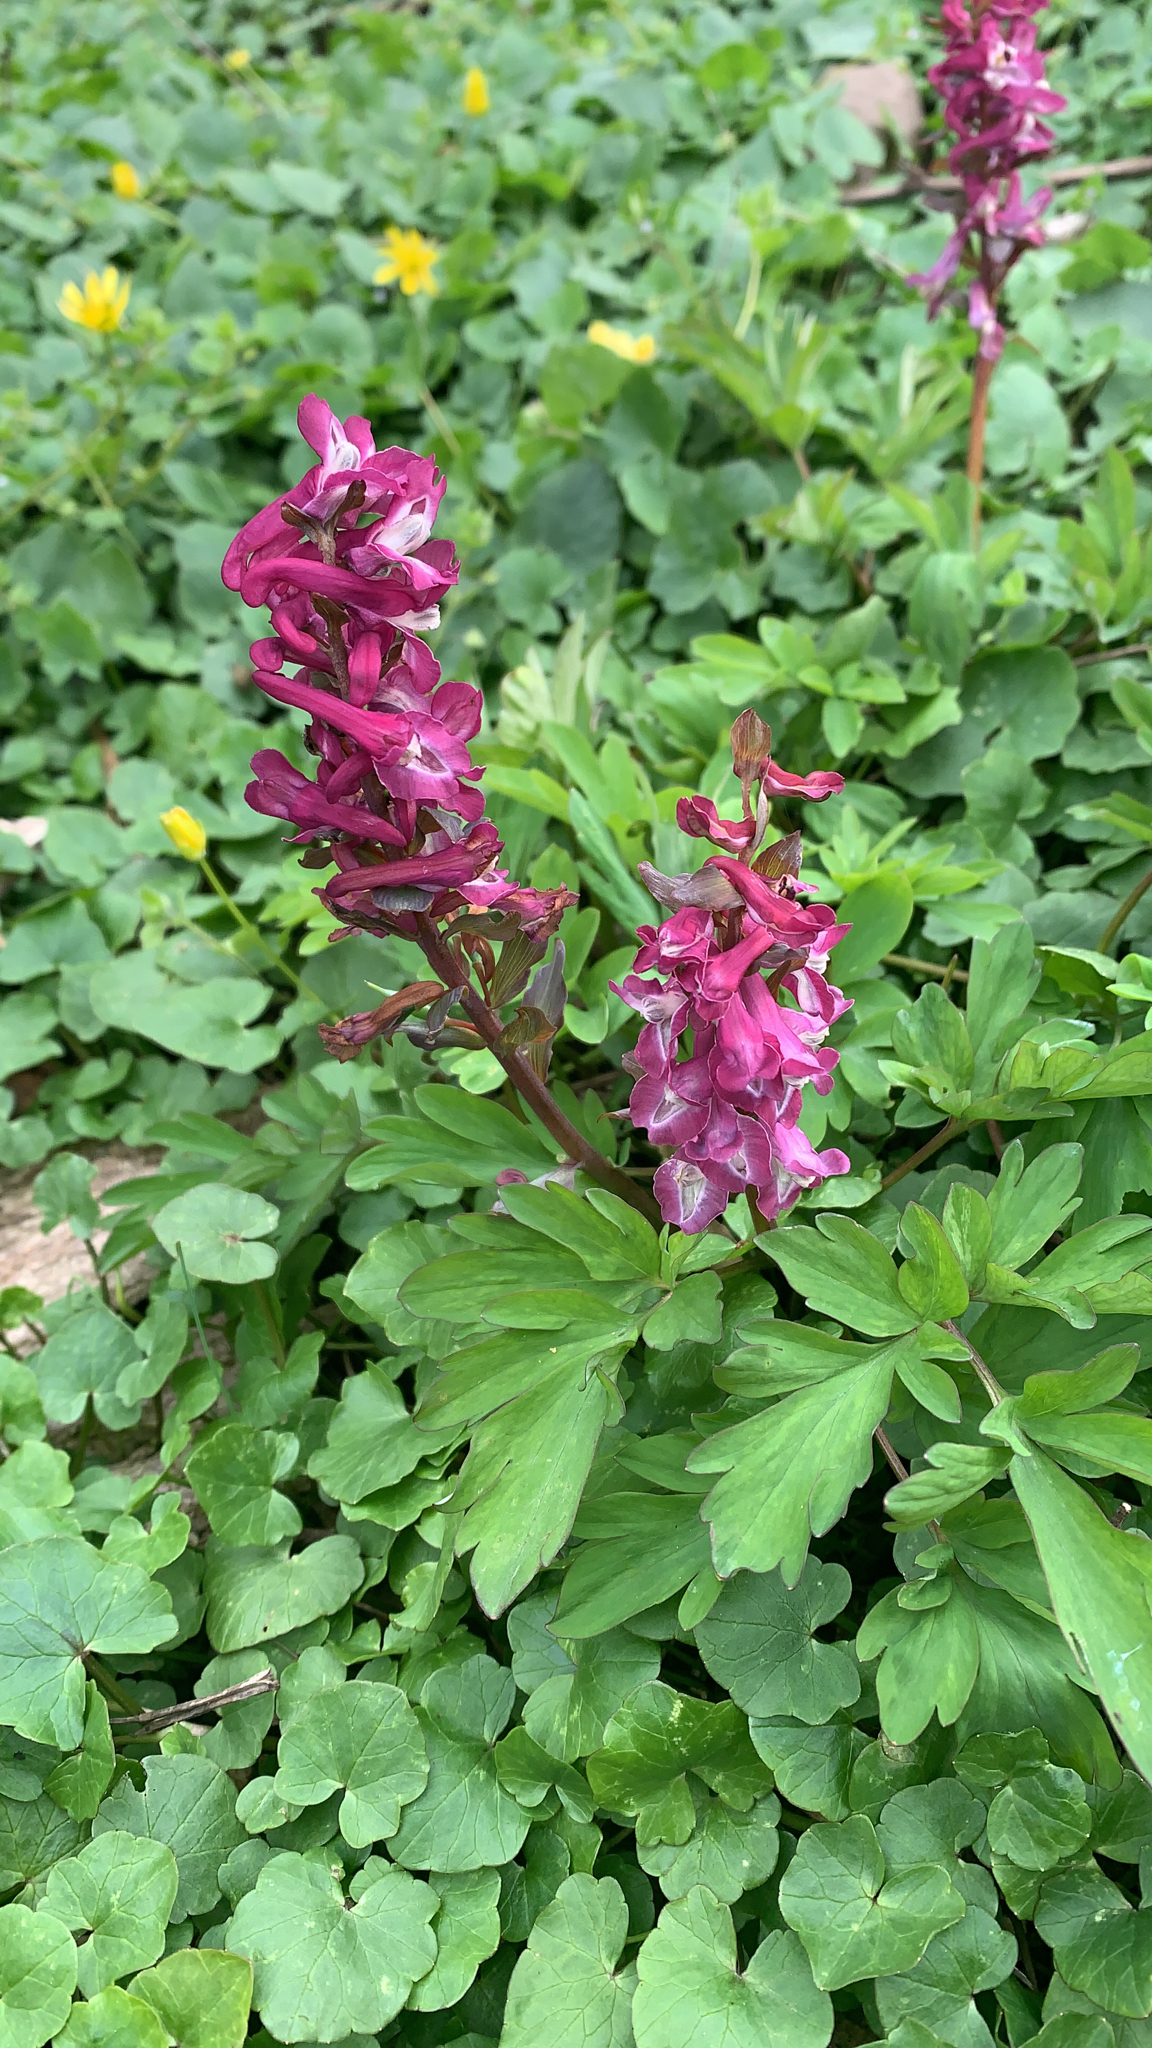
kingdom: Plantae
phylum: Tracheophyta
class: Magnoliopsida
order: Ranunculales
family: Papaveraceae
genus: Corydalis
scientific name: Corydalis cava
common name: Hollowroot
